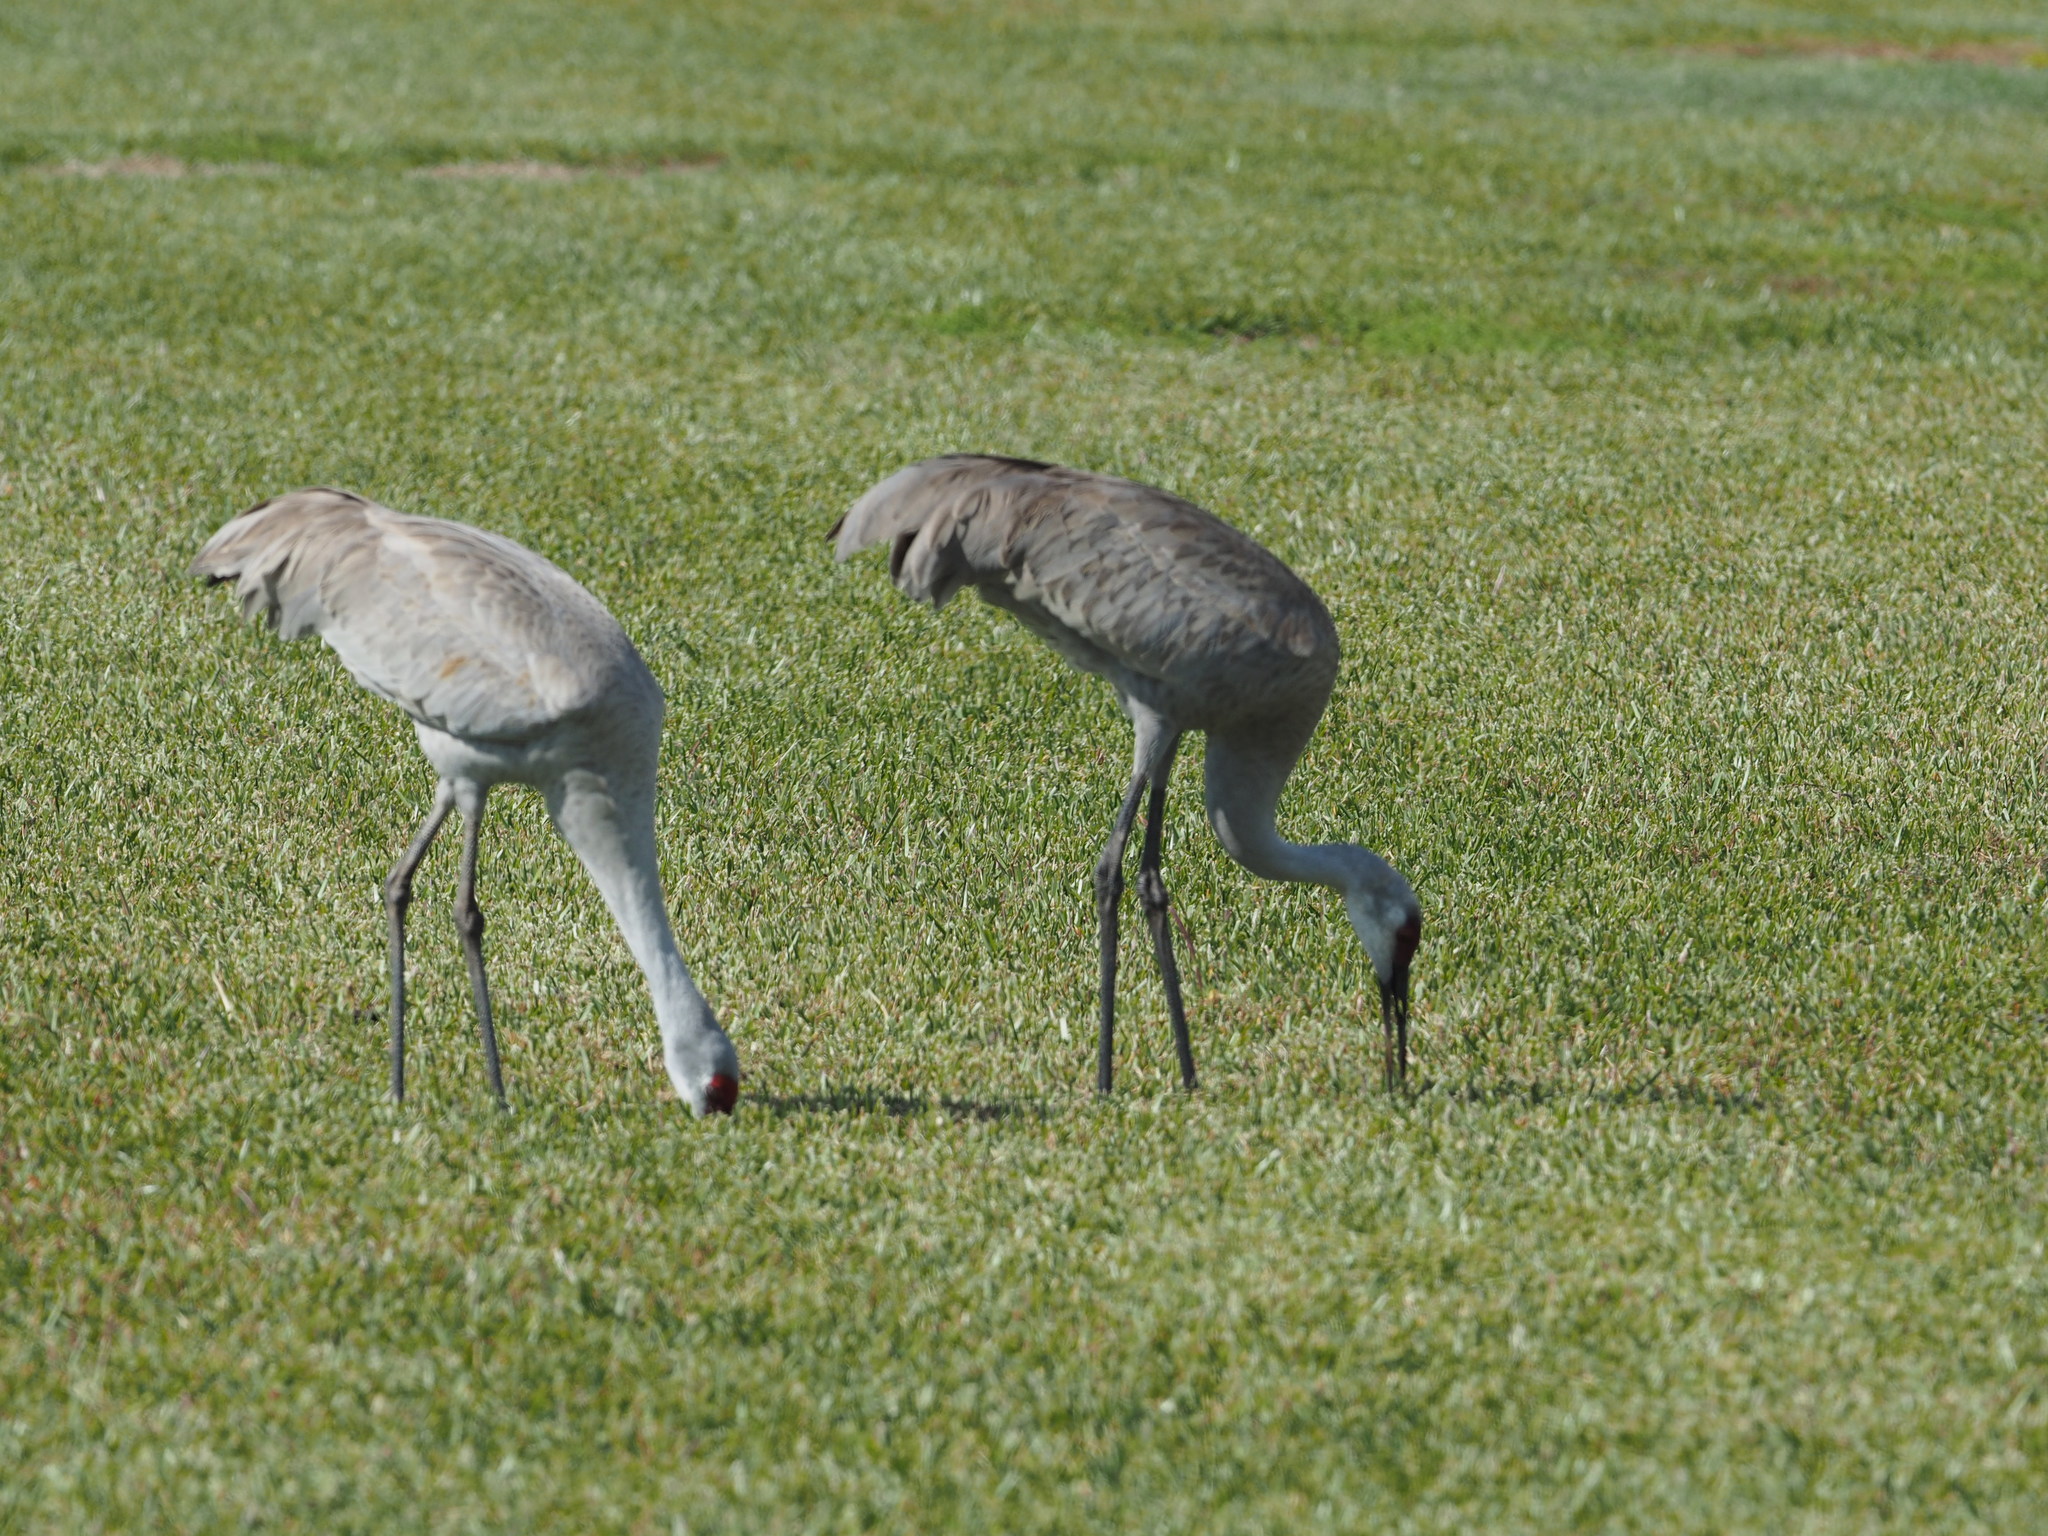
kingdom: Animalia
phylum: Chordata
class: Aves
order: Gruiformes
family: Gruidae
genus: Grus
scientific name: Grus canadensis
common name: Sandhill crane
